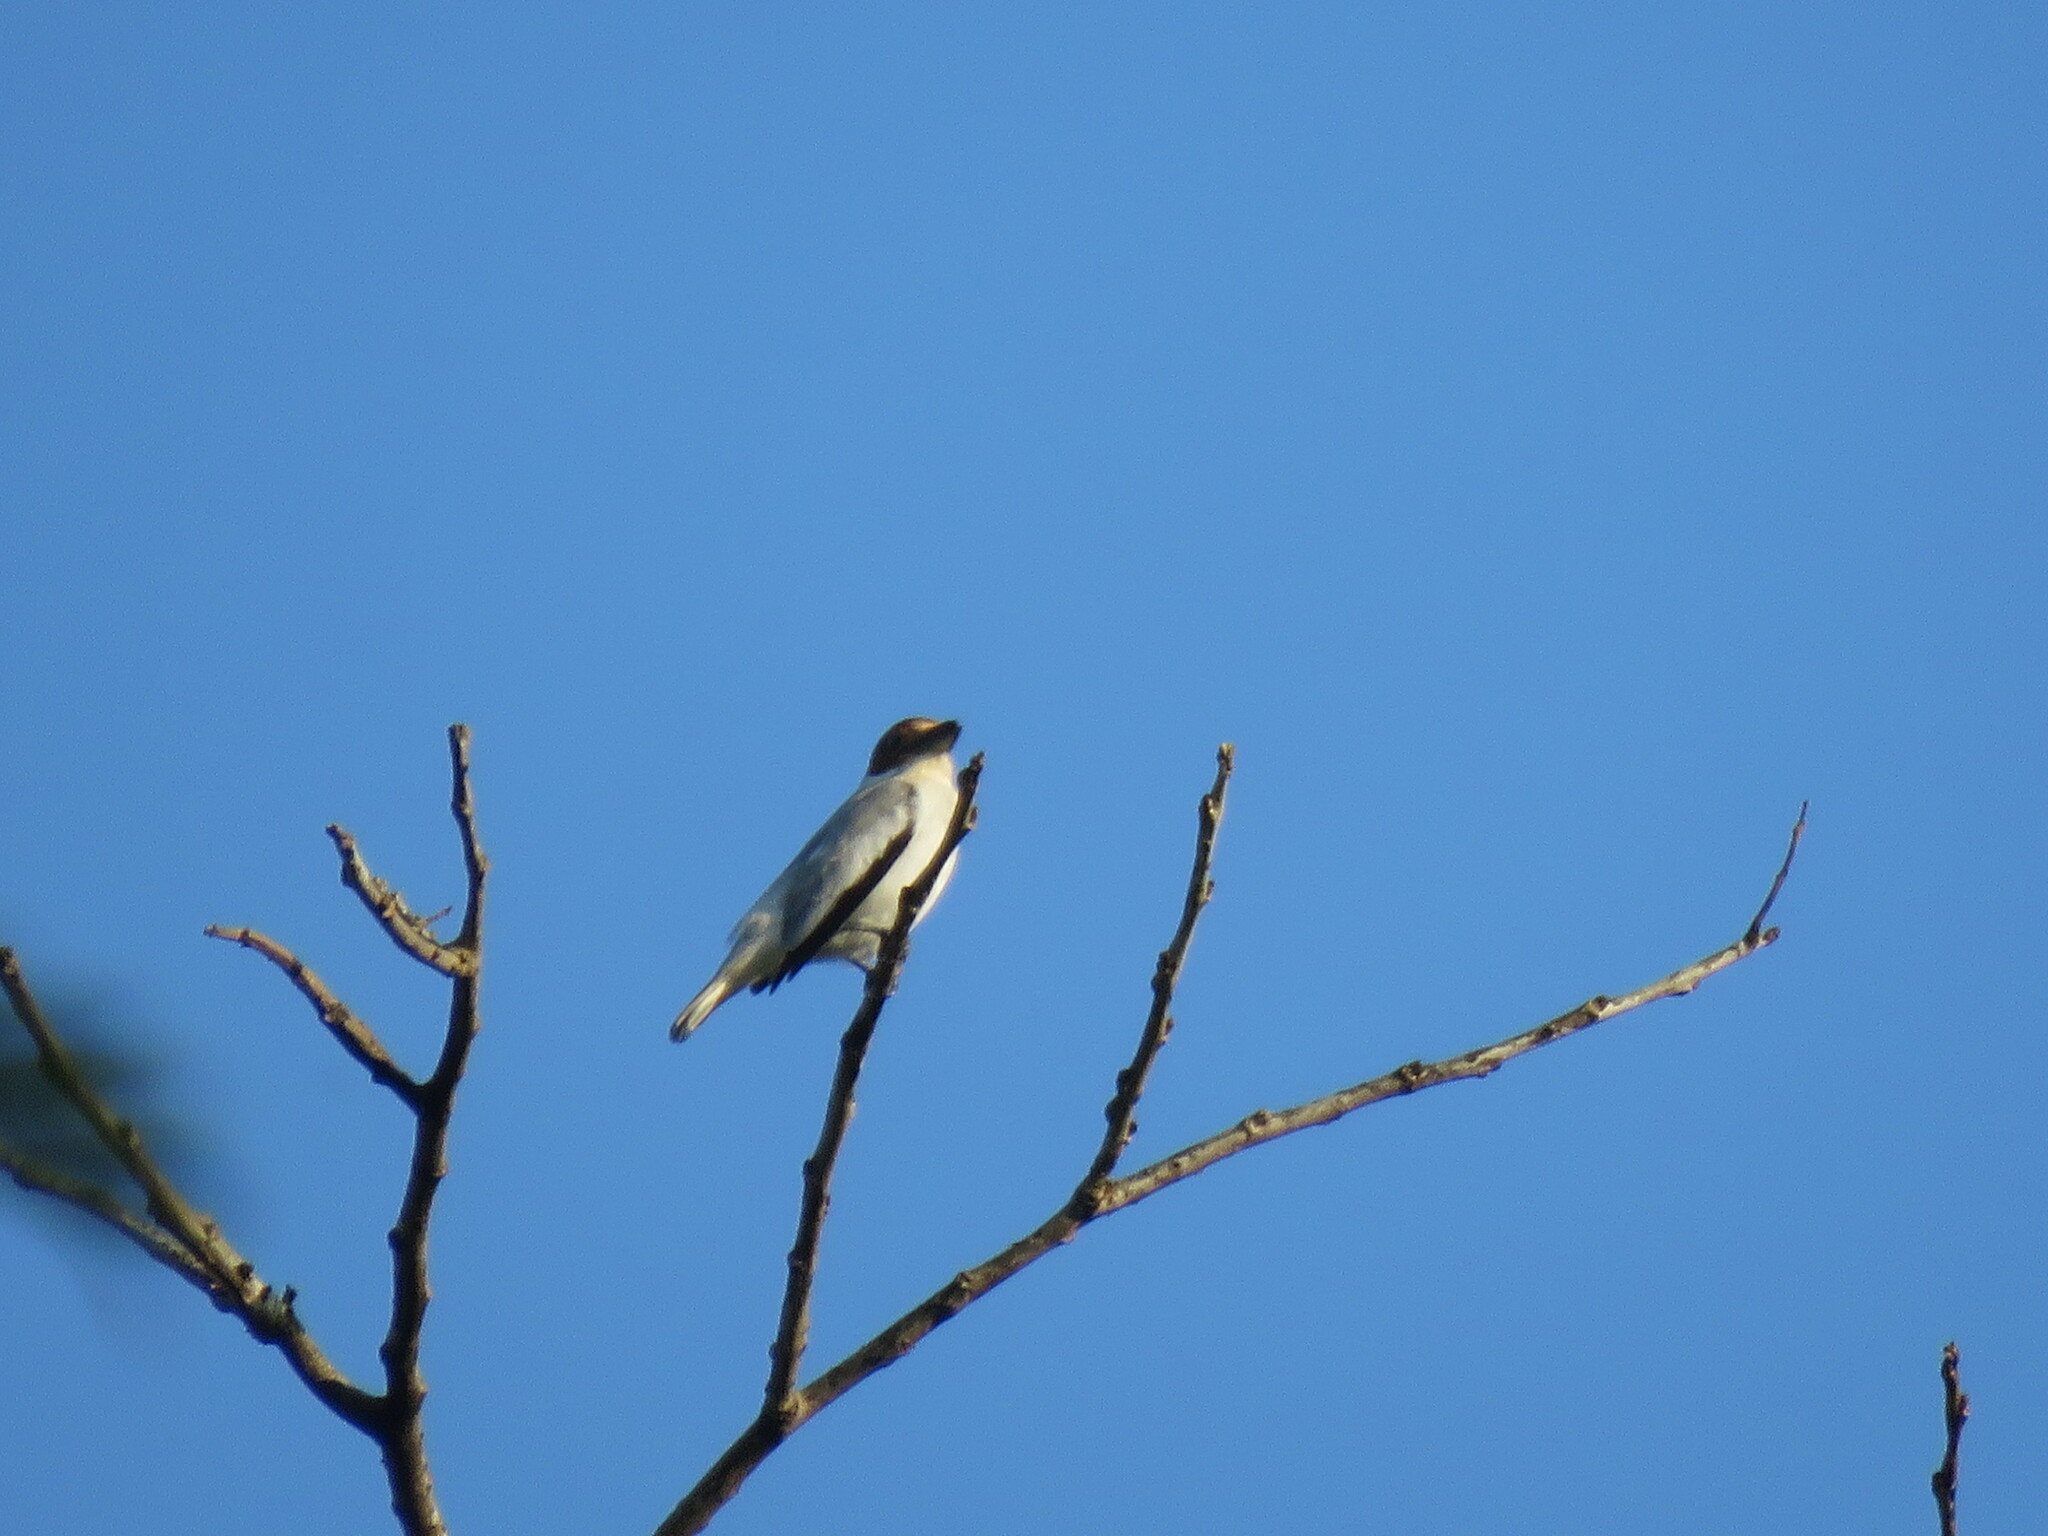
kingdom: Animalia
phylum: Chordata
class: Aves
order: Passeriformes
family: Cotingidae
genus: Tityra
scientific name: Tityra inquisitor
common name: Black-crowned tityra
